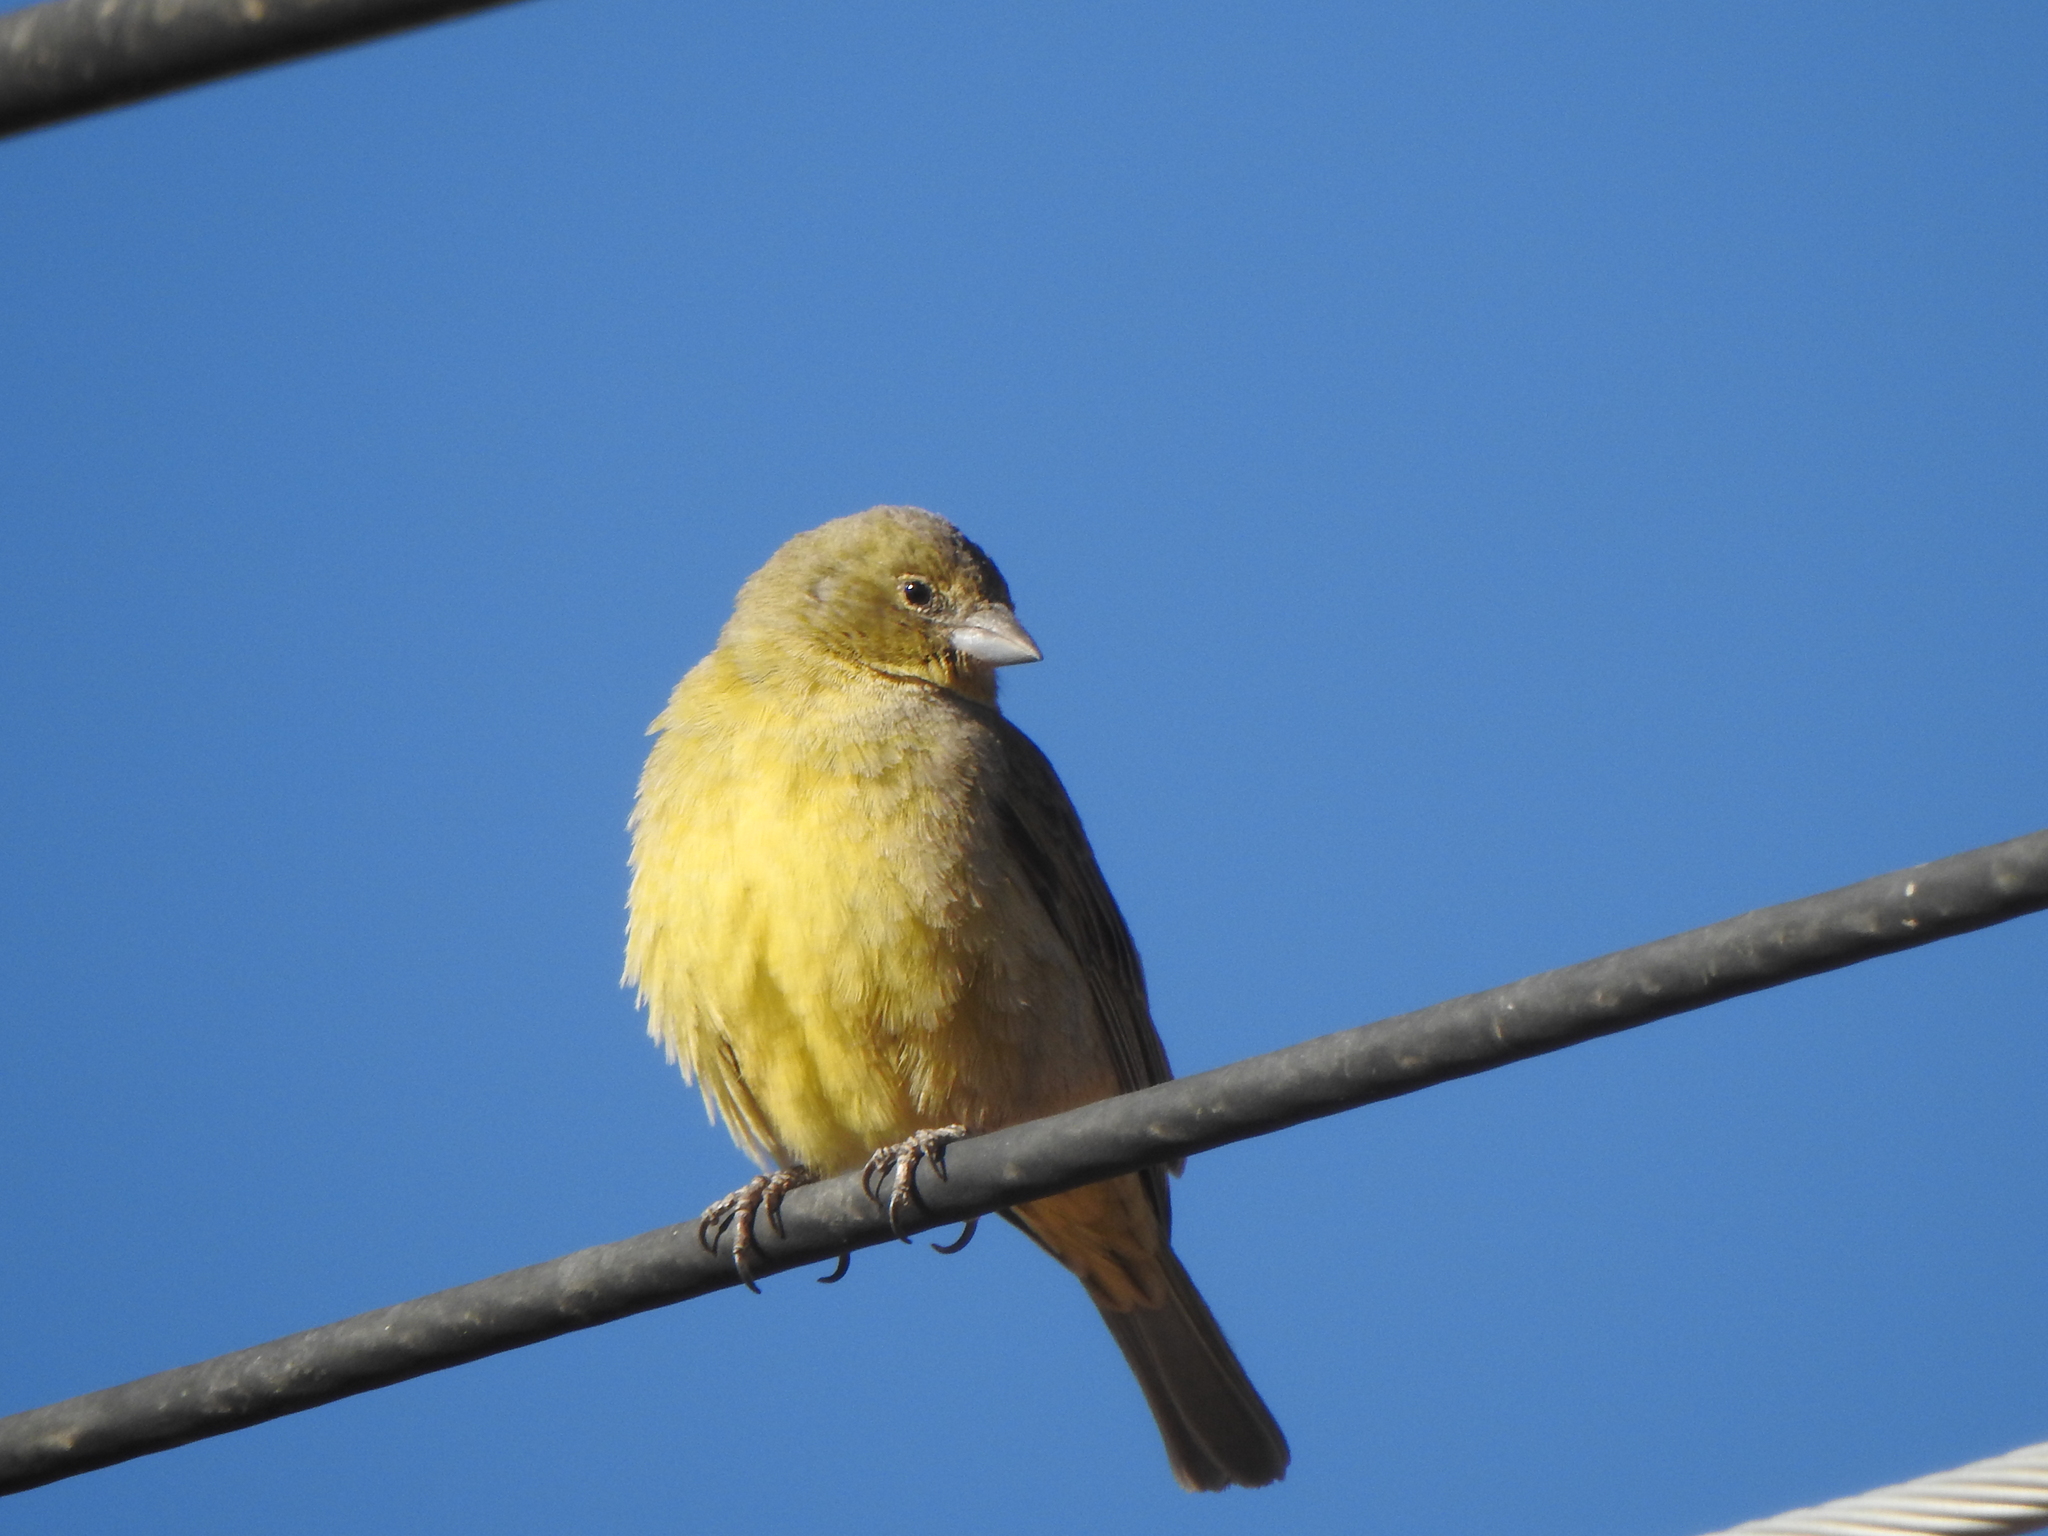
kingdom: Animalia
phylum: Chordata
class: Aves
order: Passeriformes
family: Thraupidae
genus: Sicalis
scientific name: Sicalis olivascens
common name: Greenish yellow finch
